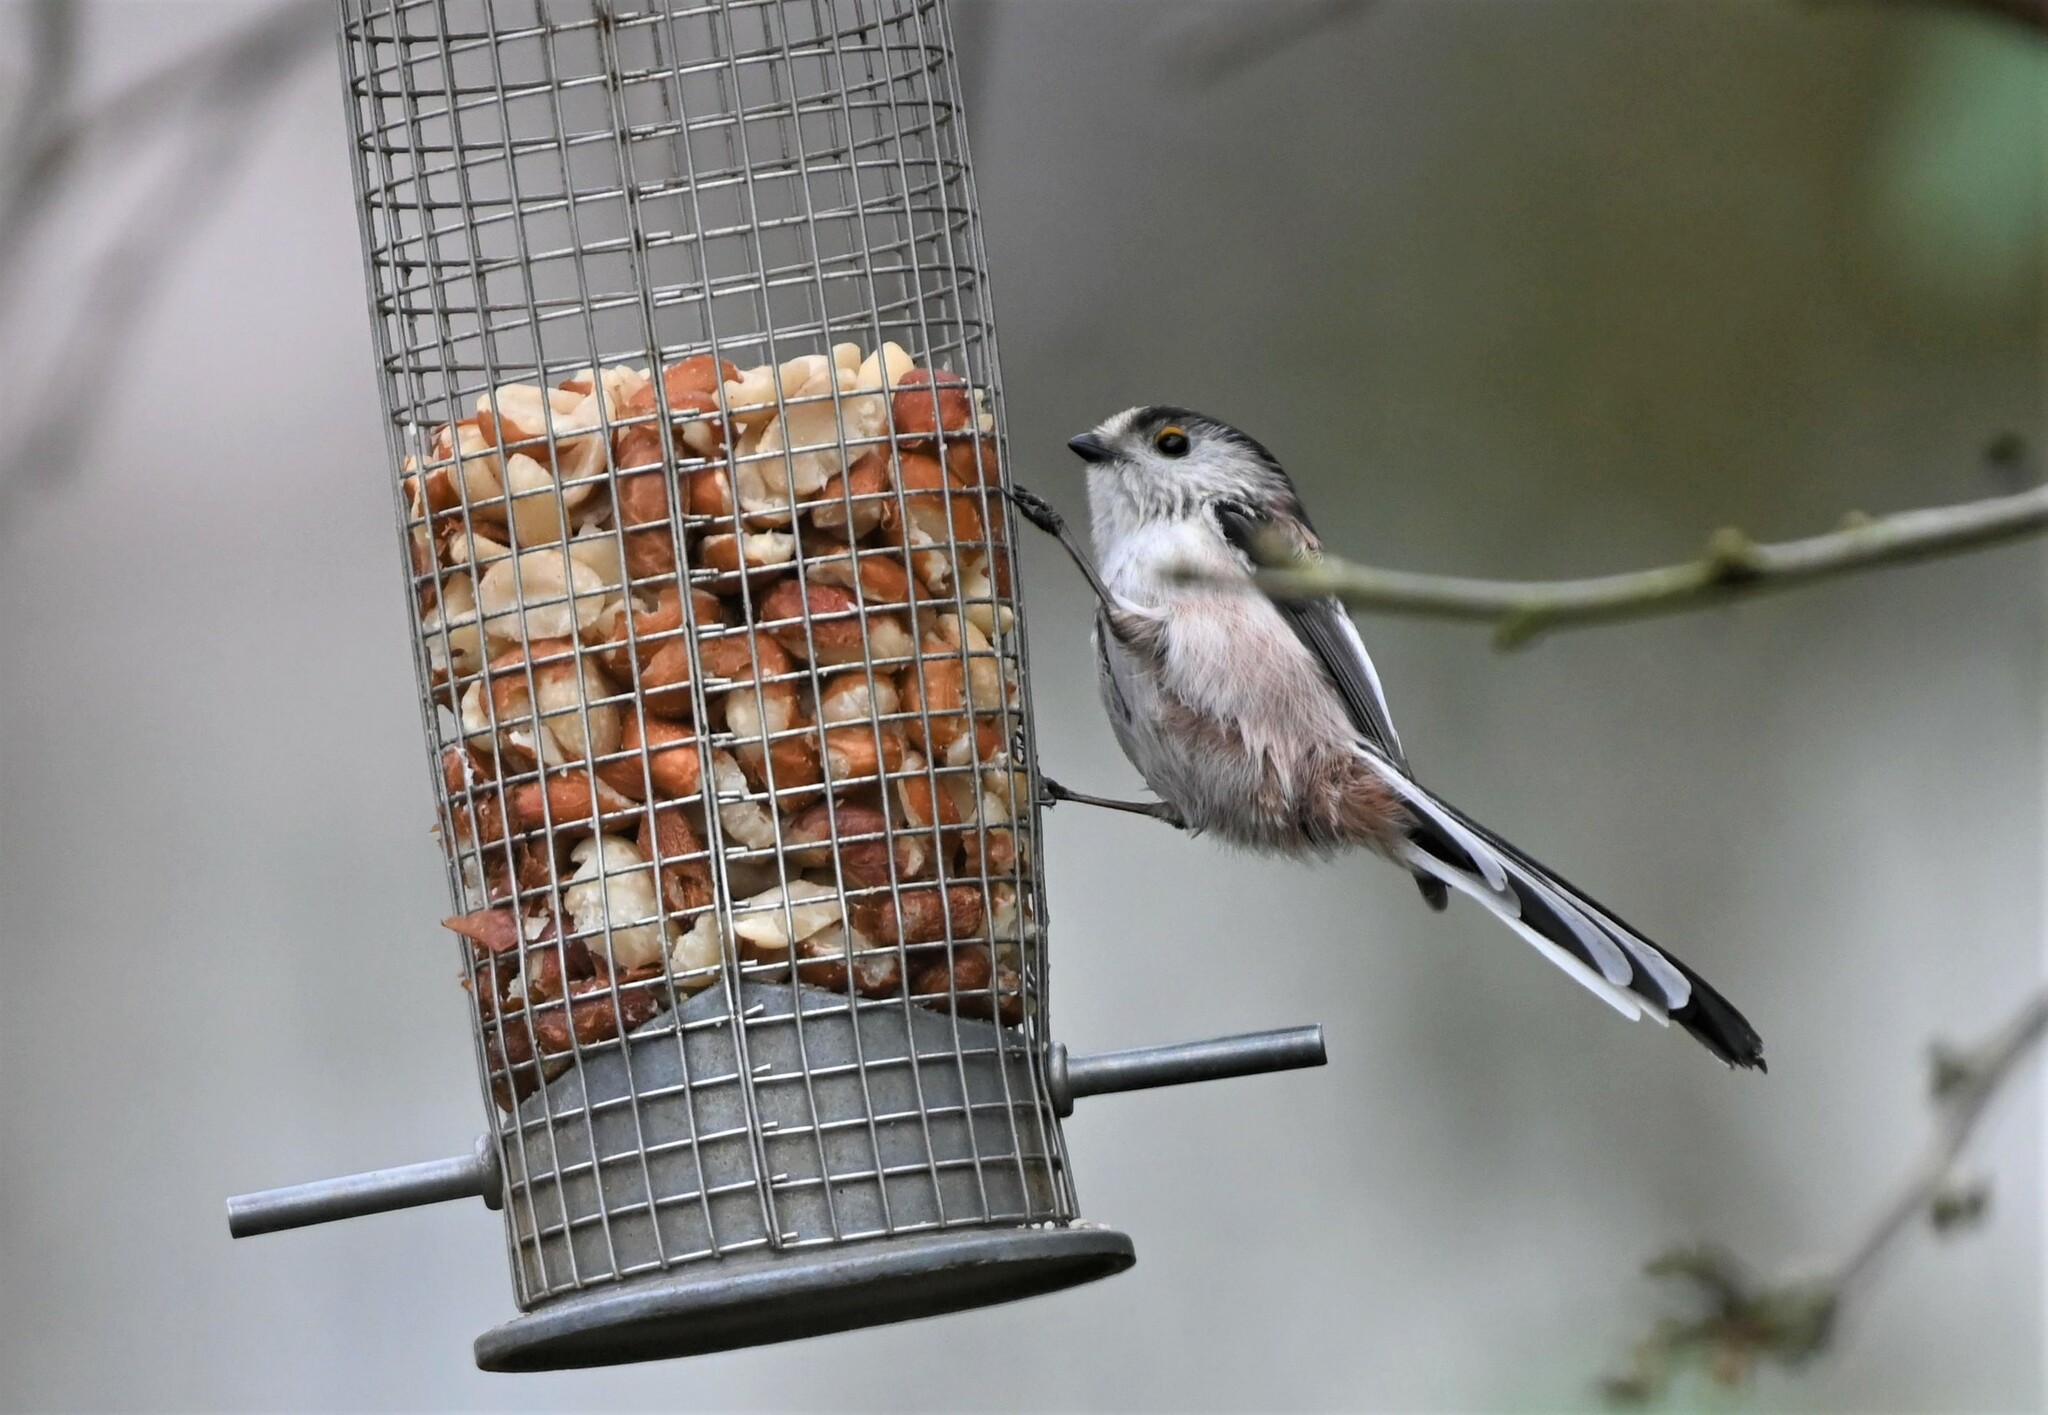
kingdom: Animalia
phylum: Chordata
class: Aves
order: Passeriformes
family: Aegithalidae
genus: Aegithalos
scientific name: Aegithalos caudatus
